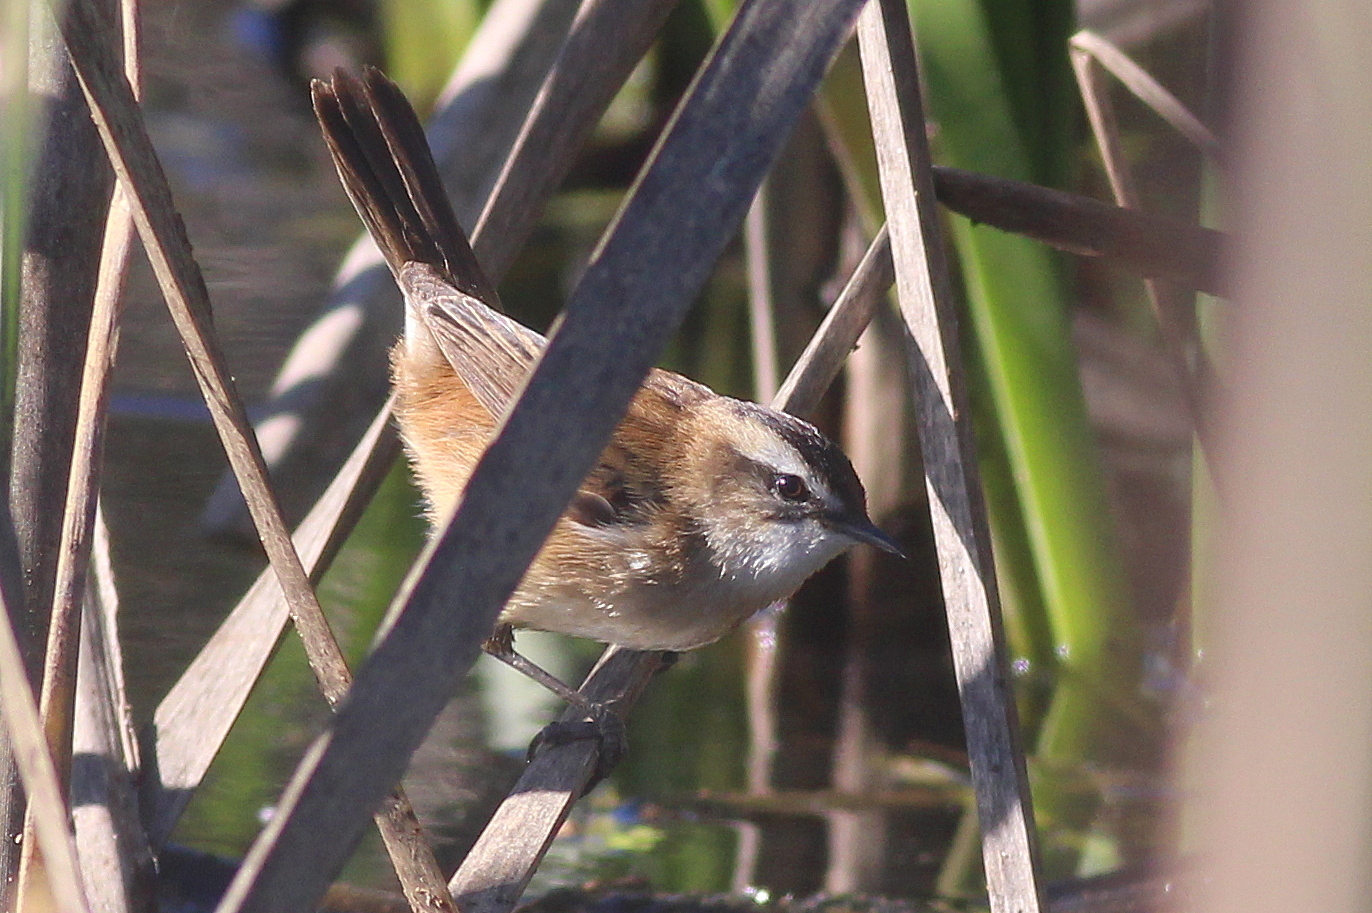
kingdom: Animalia
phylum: Chordata
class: Aves
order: Passeriformes
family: Acrocephalidae
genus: Acrocephalus
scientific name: Acrocephalus melanopogon
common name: Moustached warbler
